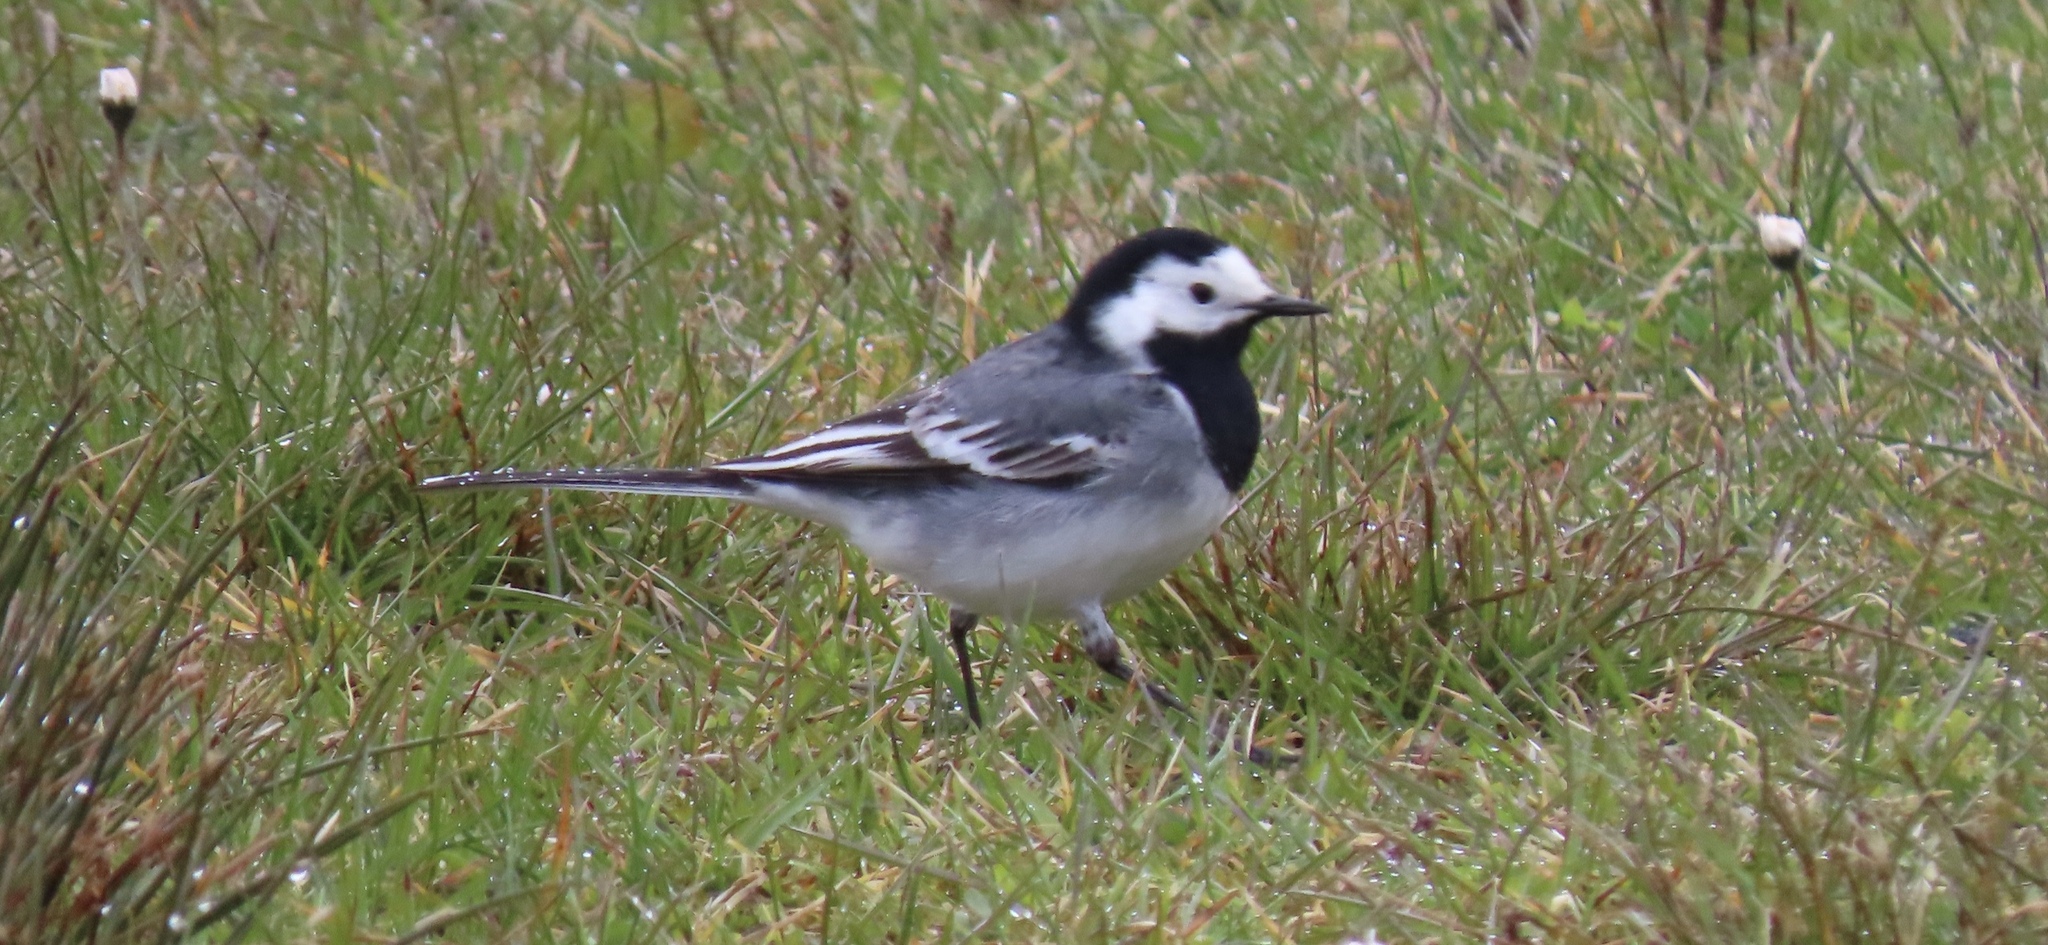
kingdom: Animalia
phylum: Chordata
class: Aves
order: Passeriformes
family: Motacillidae
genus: Motacilla
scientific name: Motacilla alba
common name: White wagtail
